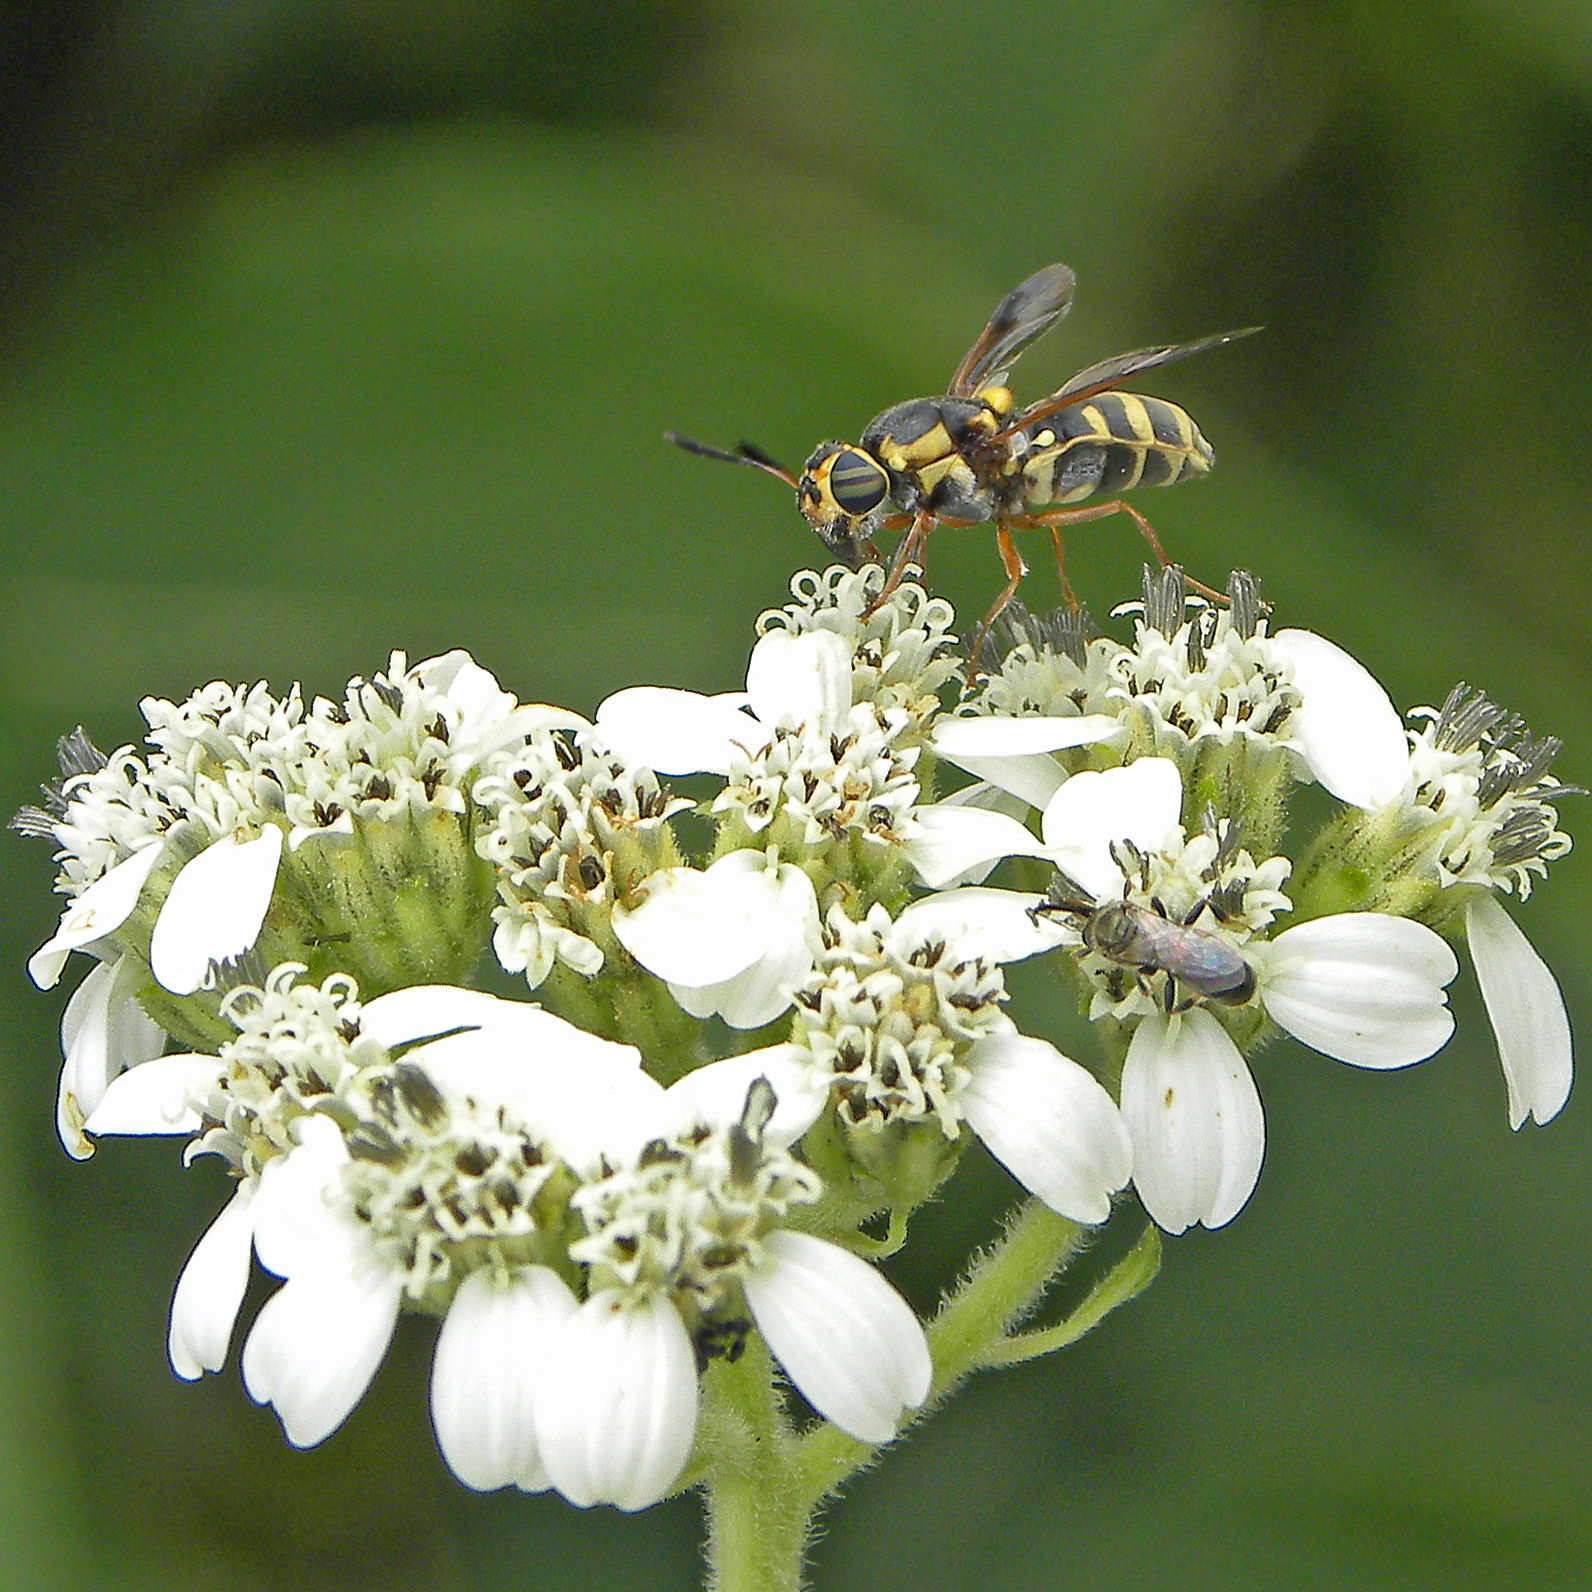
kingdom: Animalia
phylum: Arthropoda
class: Insecta
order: Diptera
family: Stratiomyidae
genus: Hoplitimyia
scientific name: Hoplitimyia constans
